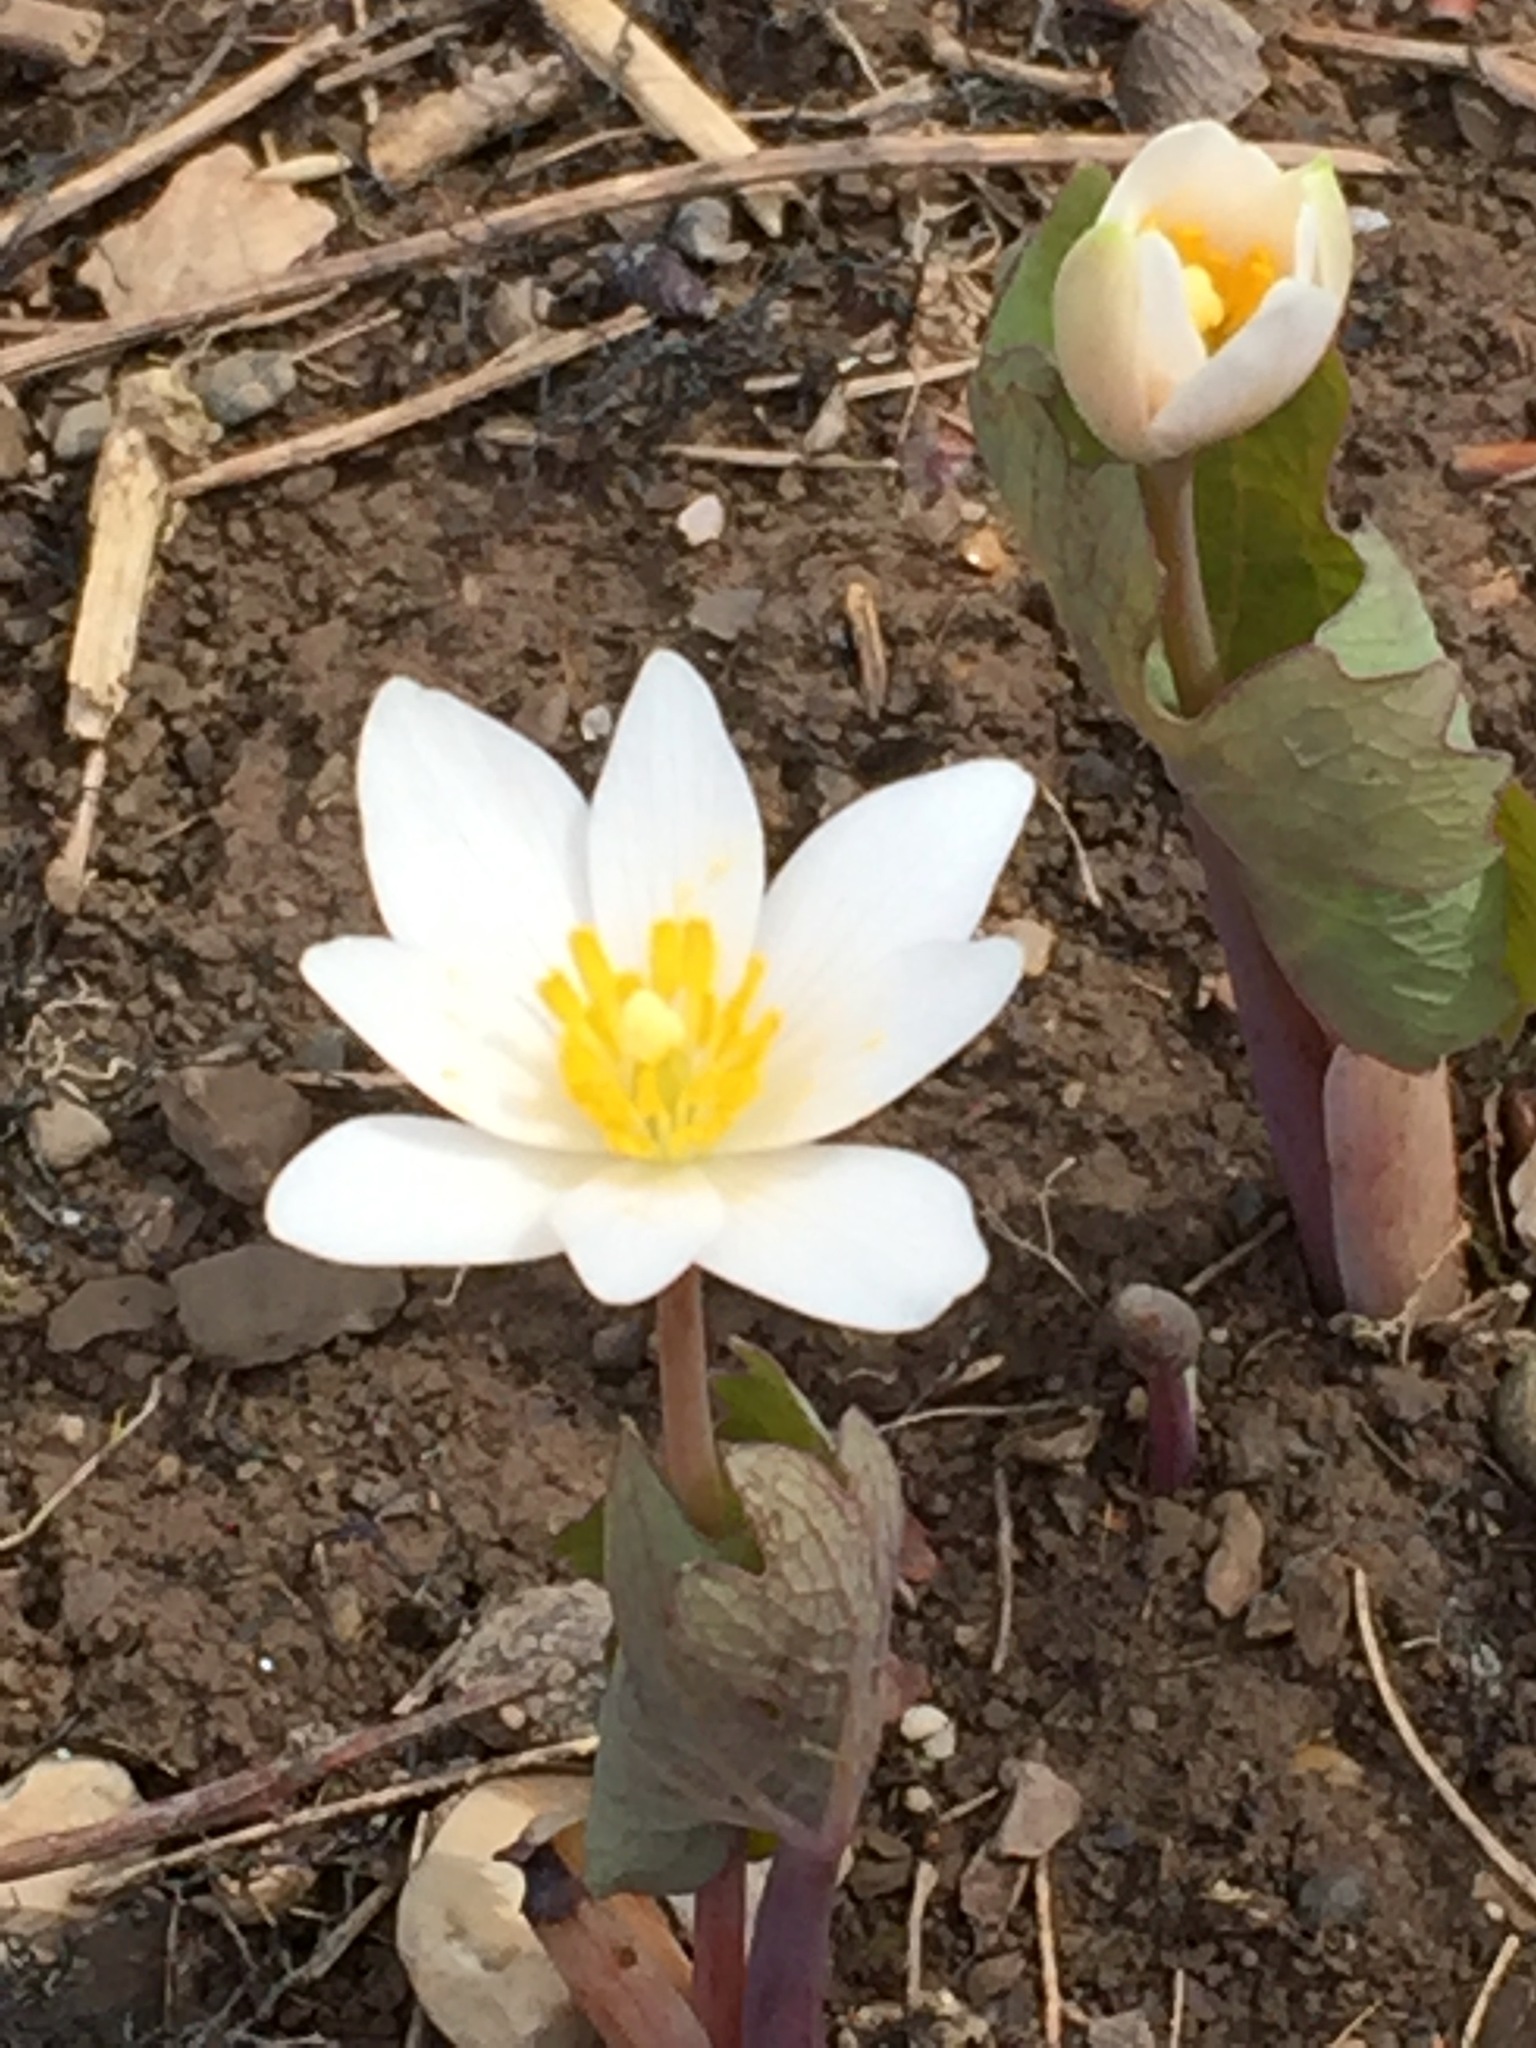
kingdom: Plantae
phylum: Tracheophyta
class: Magnoliopsida
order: Ranunculales
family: Papaveraceae
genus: Sanguinaria
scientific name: Sanguinaria canadensis
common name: Bloodroot
